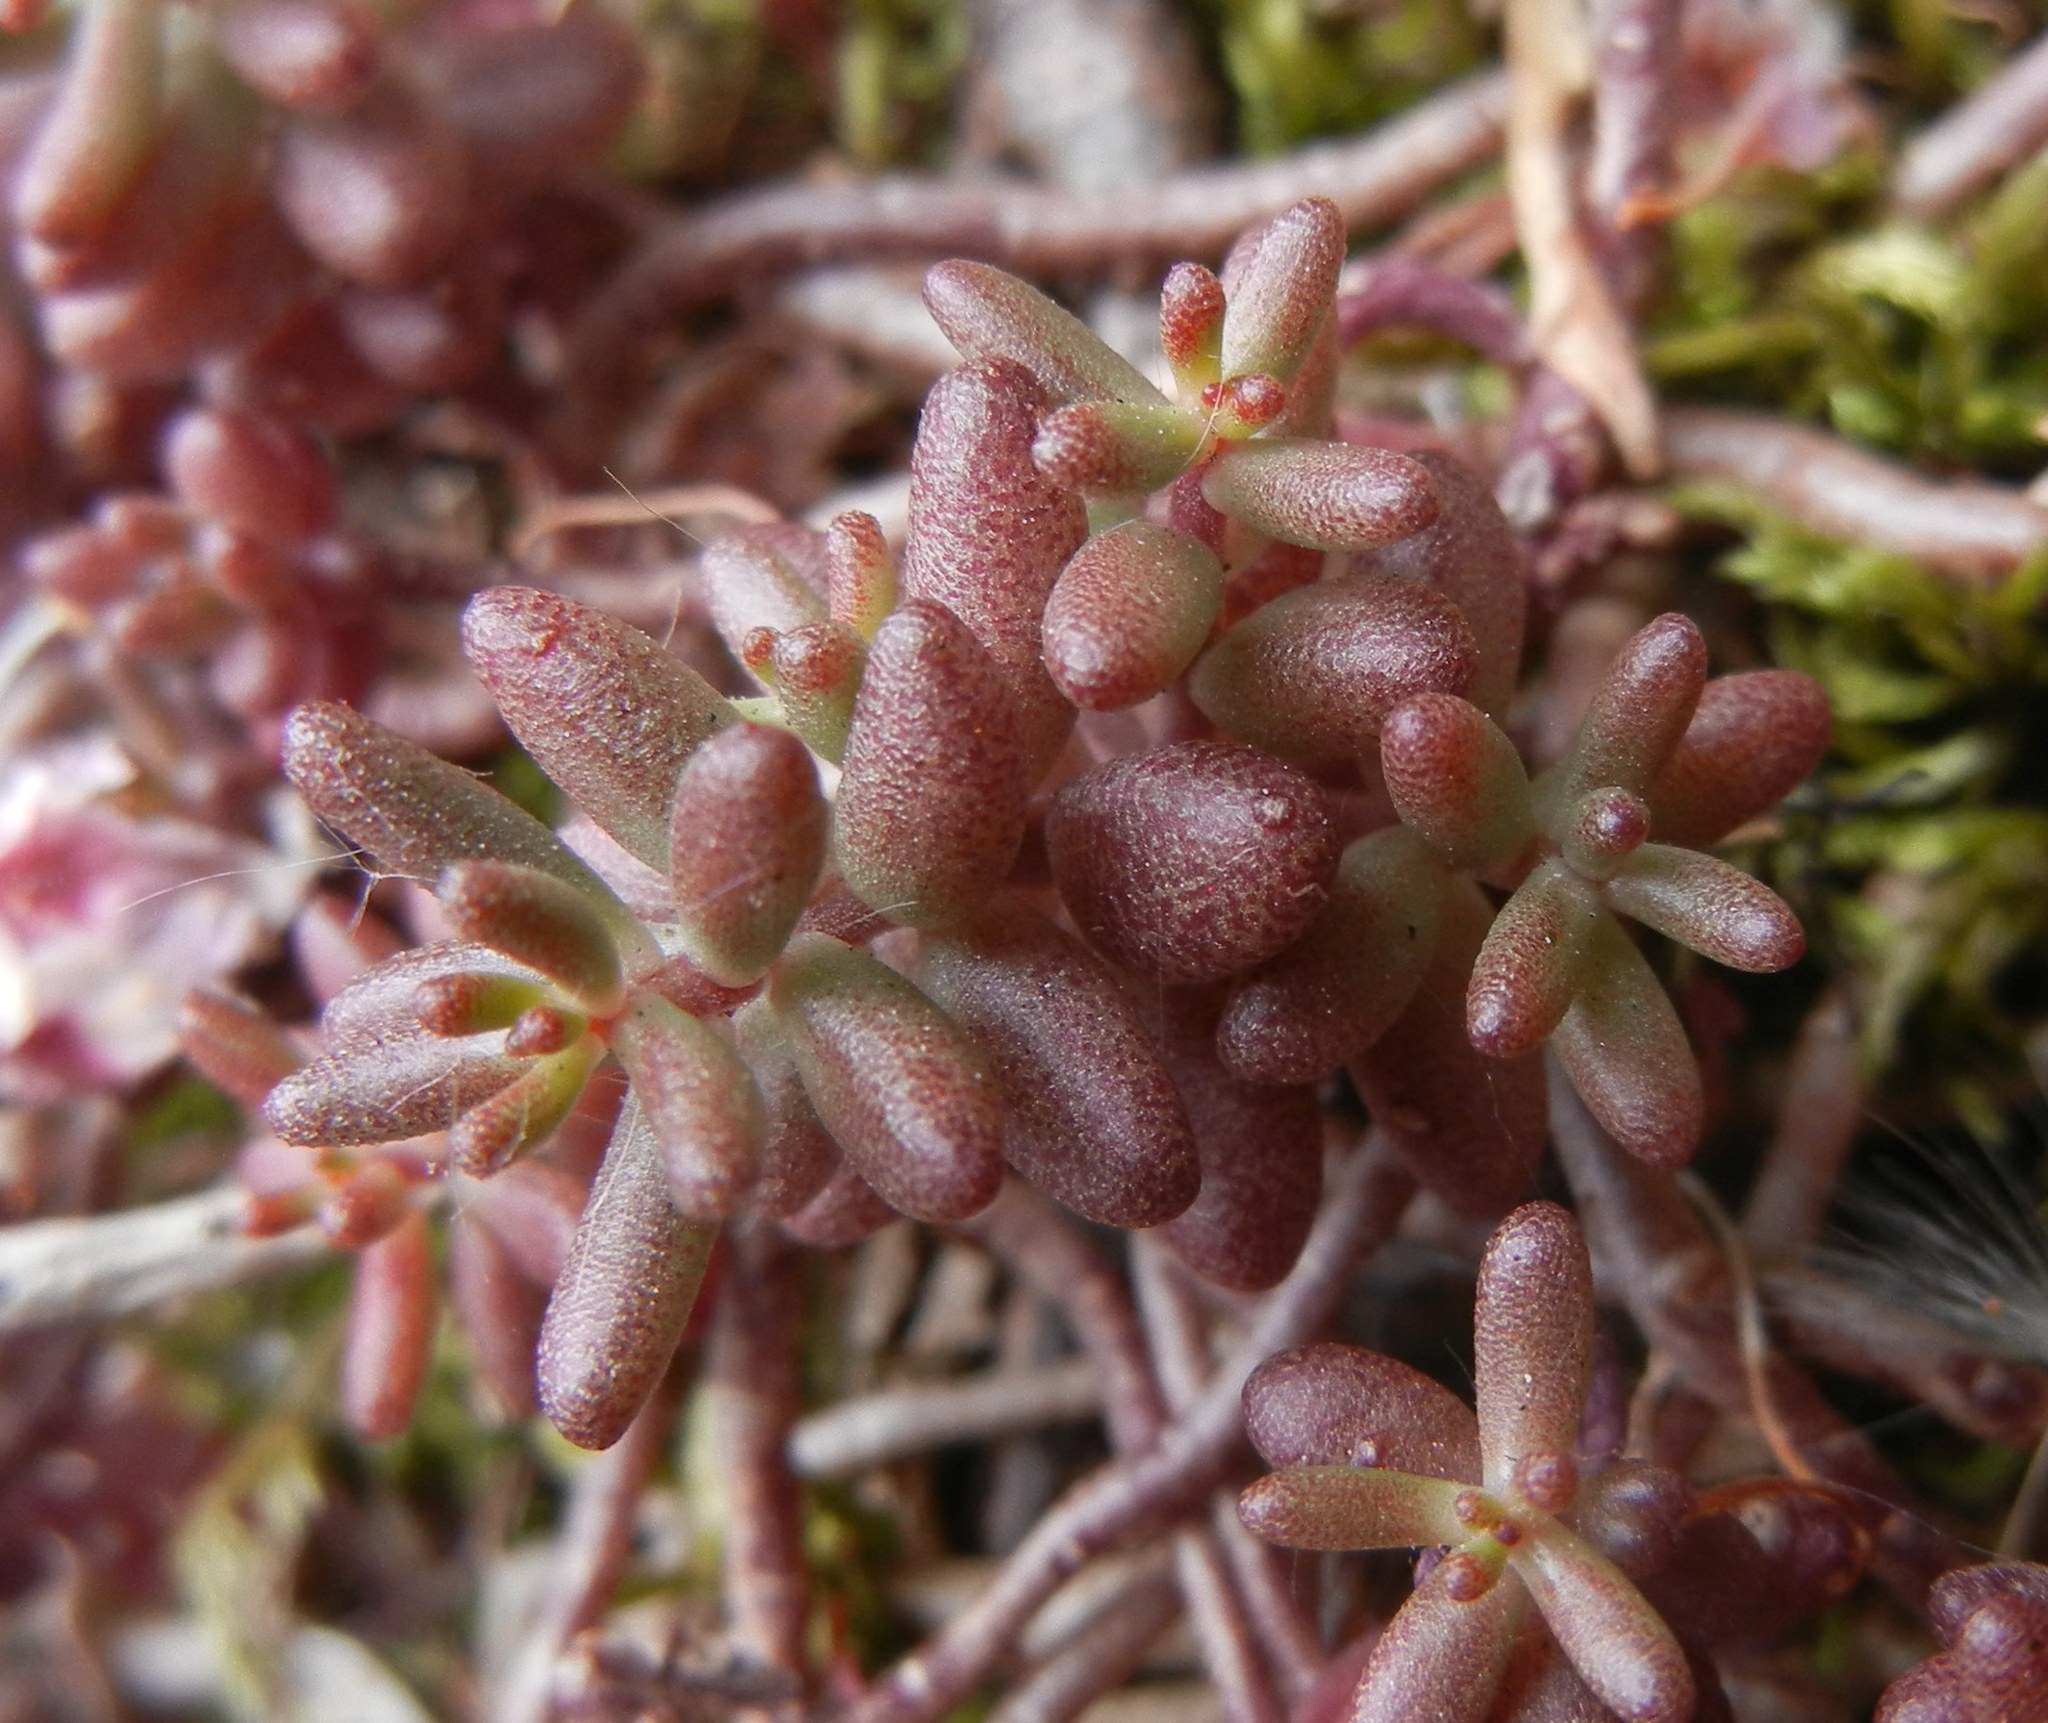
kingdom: Plantae
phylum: Tracheophyta
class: Magnoliopsida
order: Saxifragales
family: Crassulaceae
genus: Sedum
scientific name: Sedum album
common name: White stonecrop
